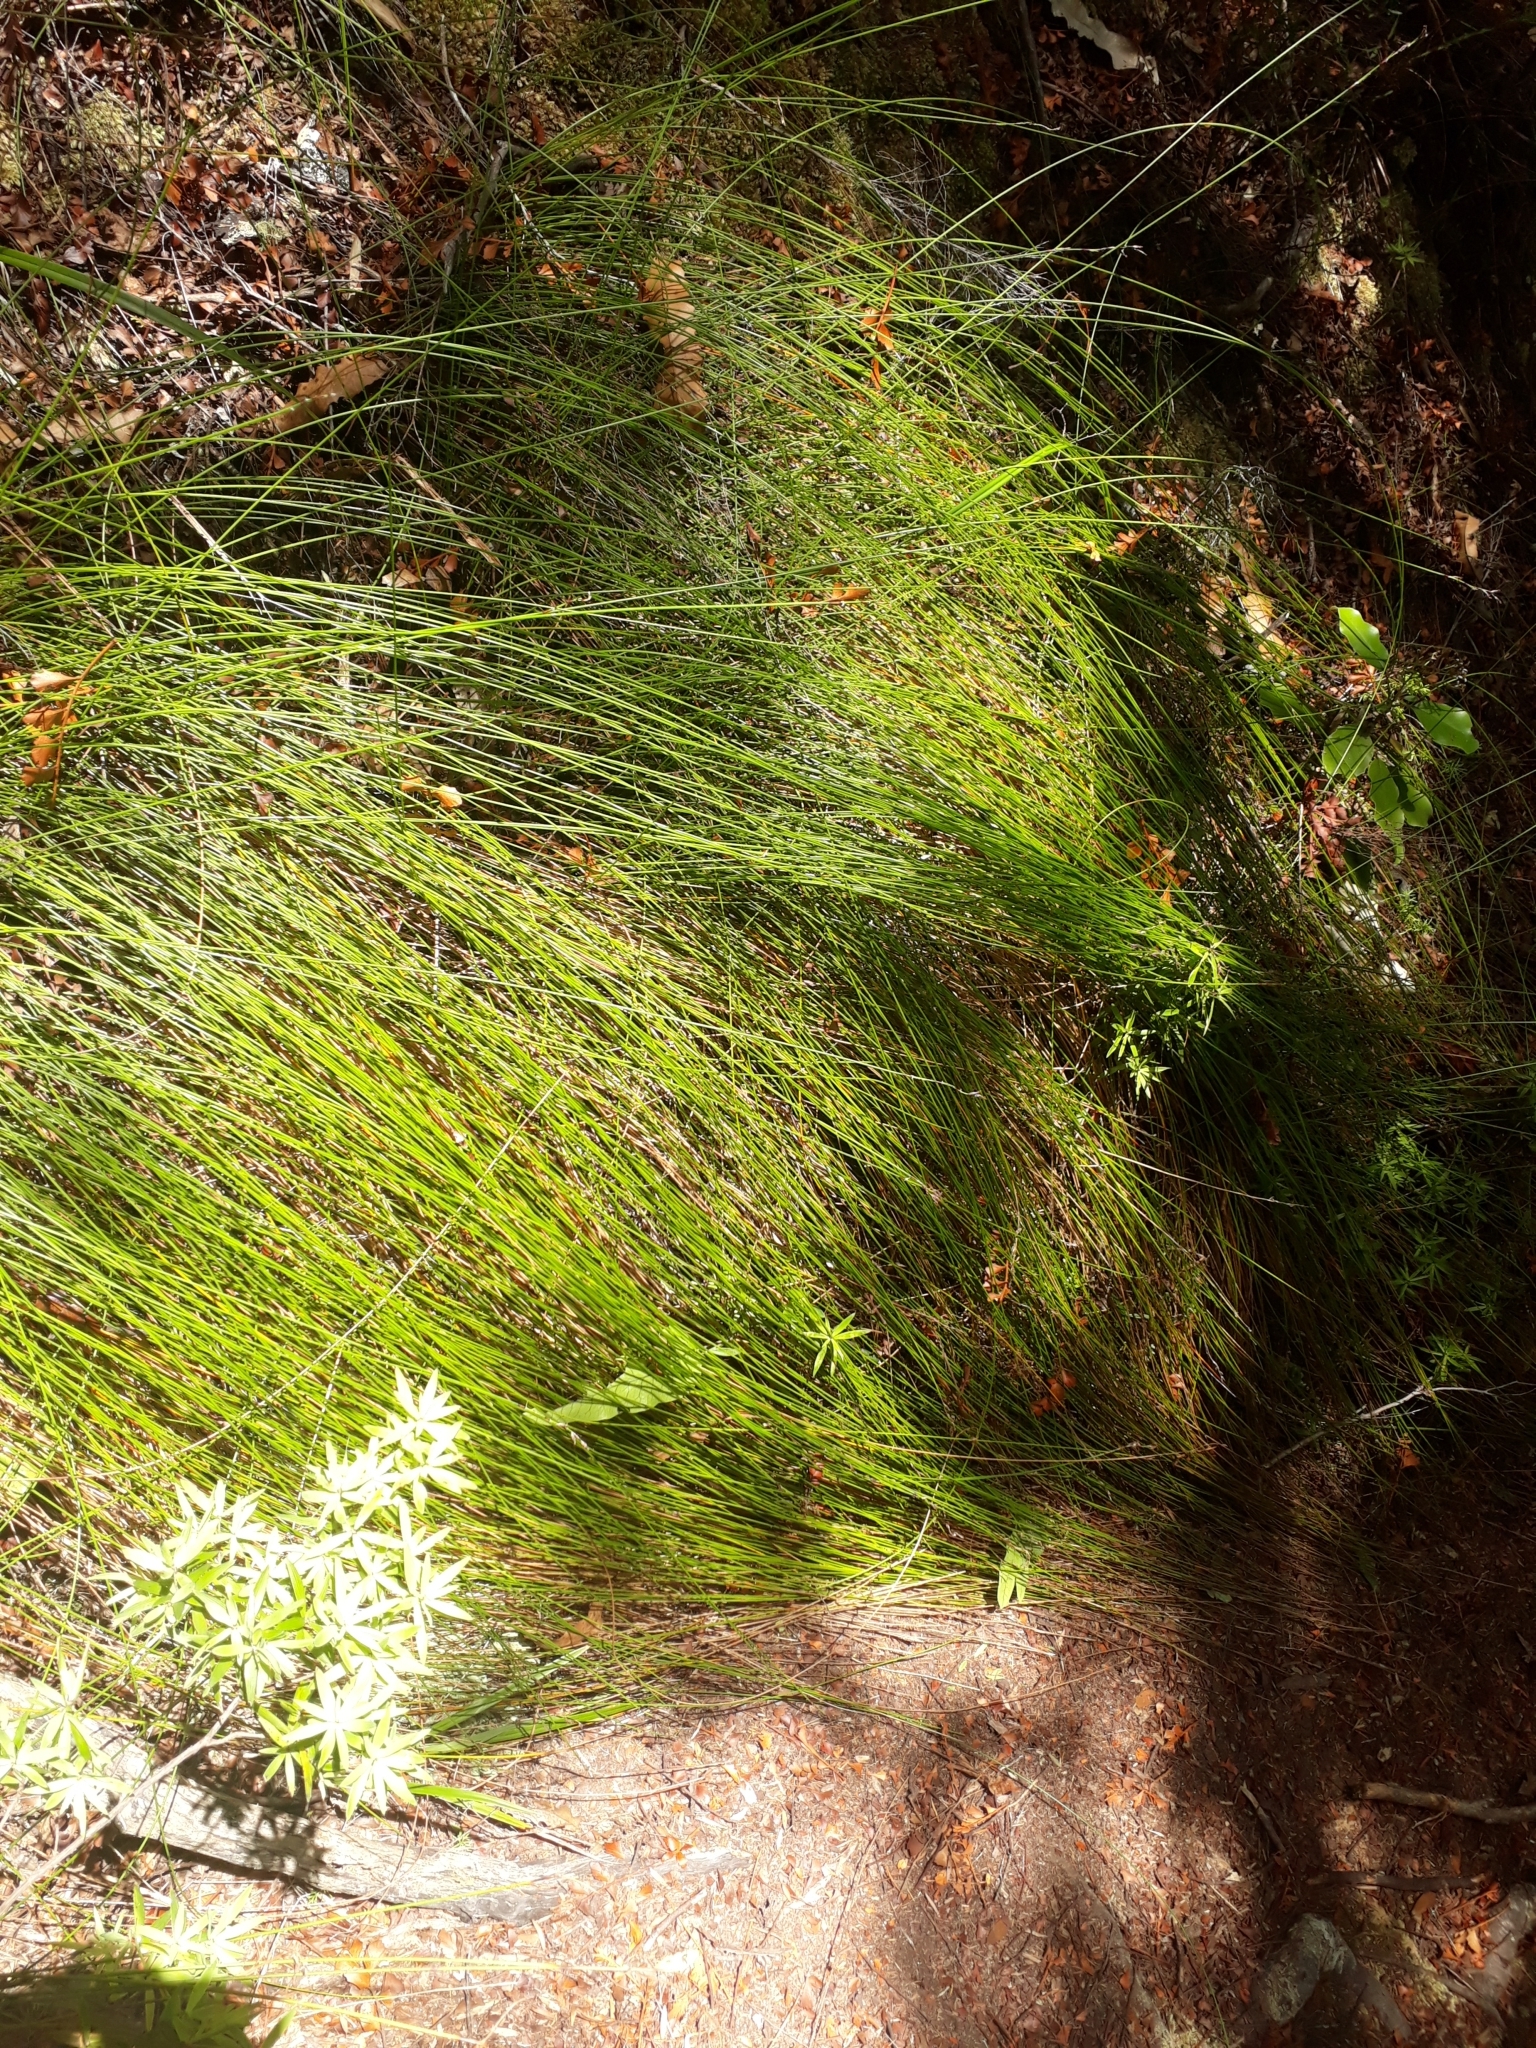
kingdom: Plantae
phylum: Tracheophyta
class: Liliopsida
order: Poales
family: Cyperaceae
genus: Schoenus
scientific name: Schoenus tendo
